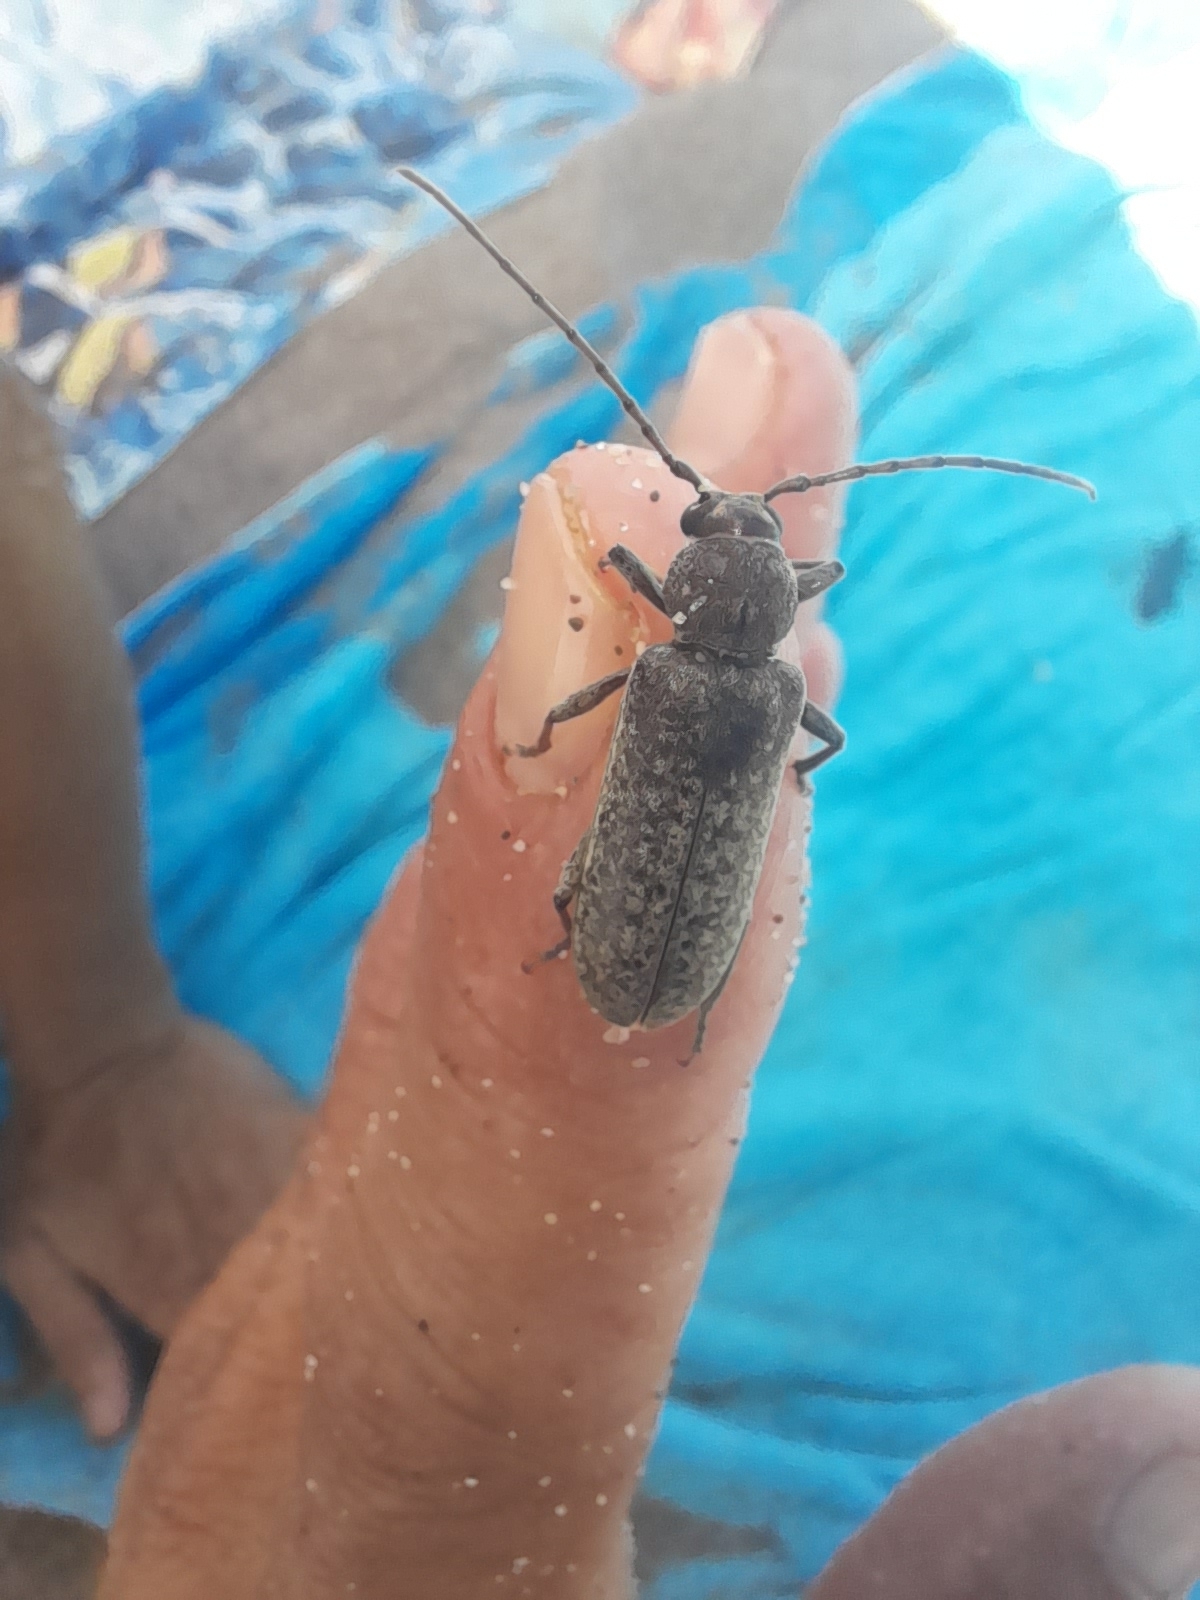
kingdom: Animalia
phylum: Arthropoda
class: Insecta
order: Coleoptera
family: Cerambycidae
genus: Trichoferus
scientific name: Trichoferus holosericeus
